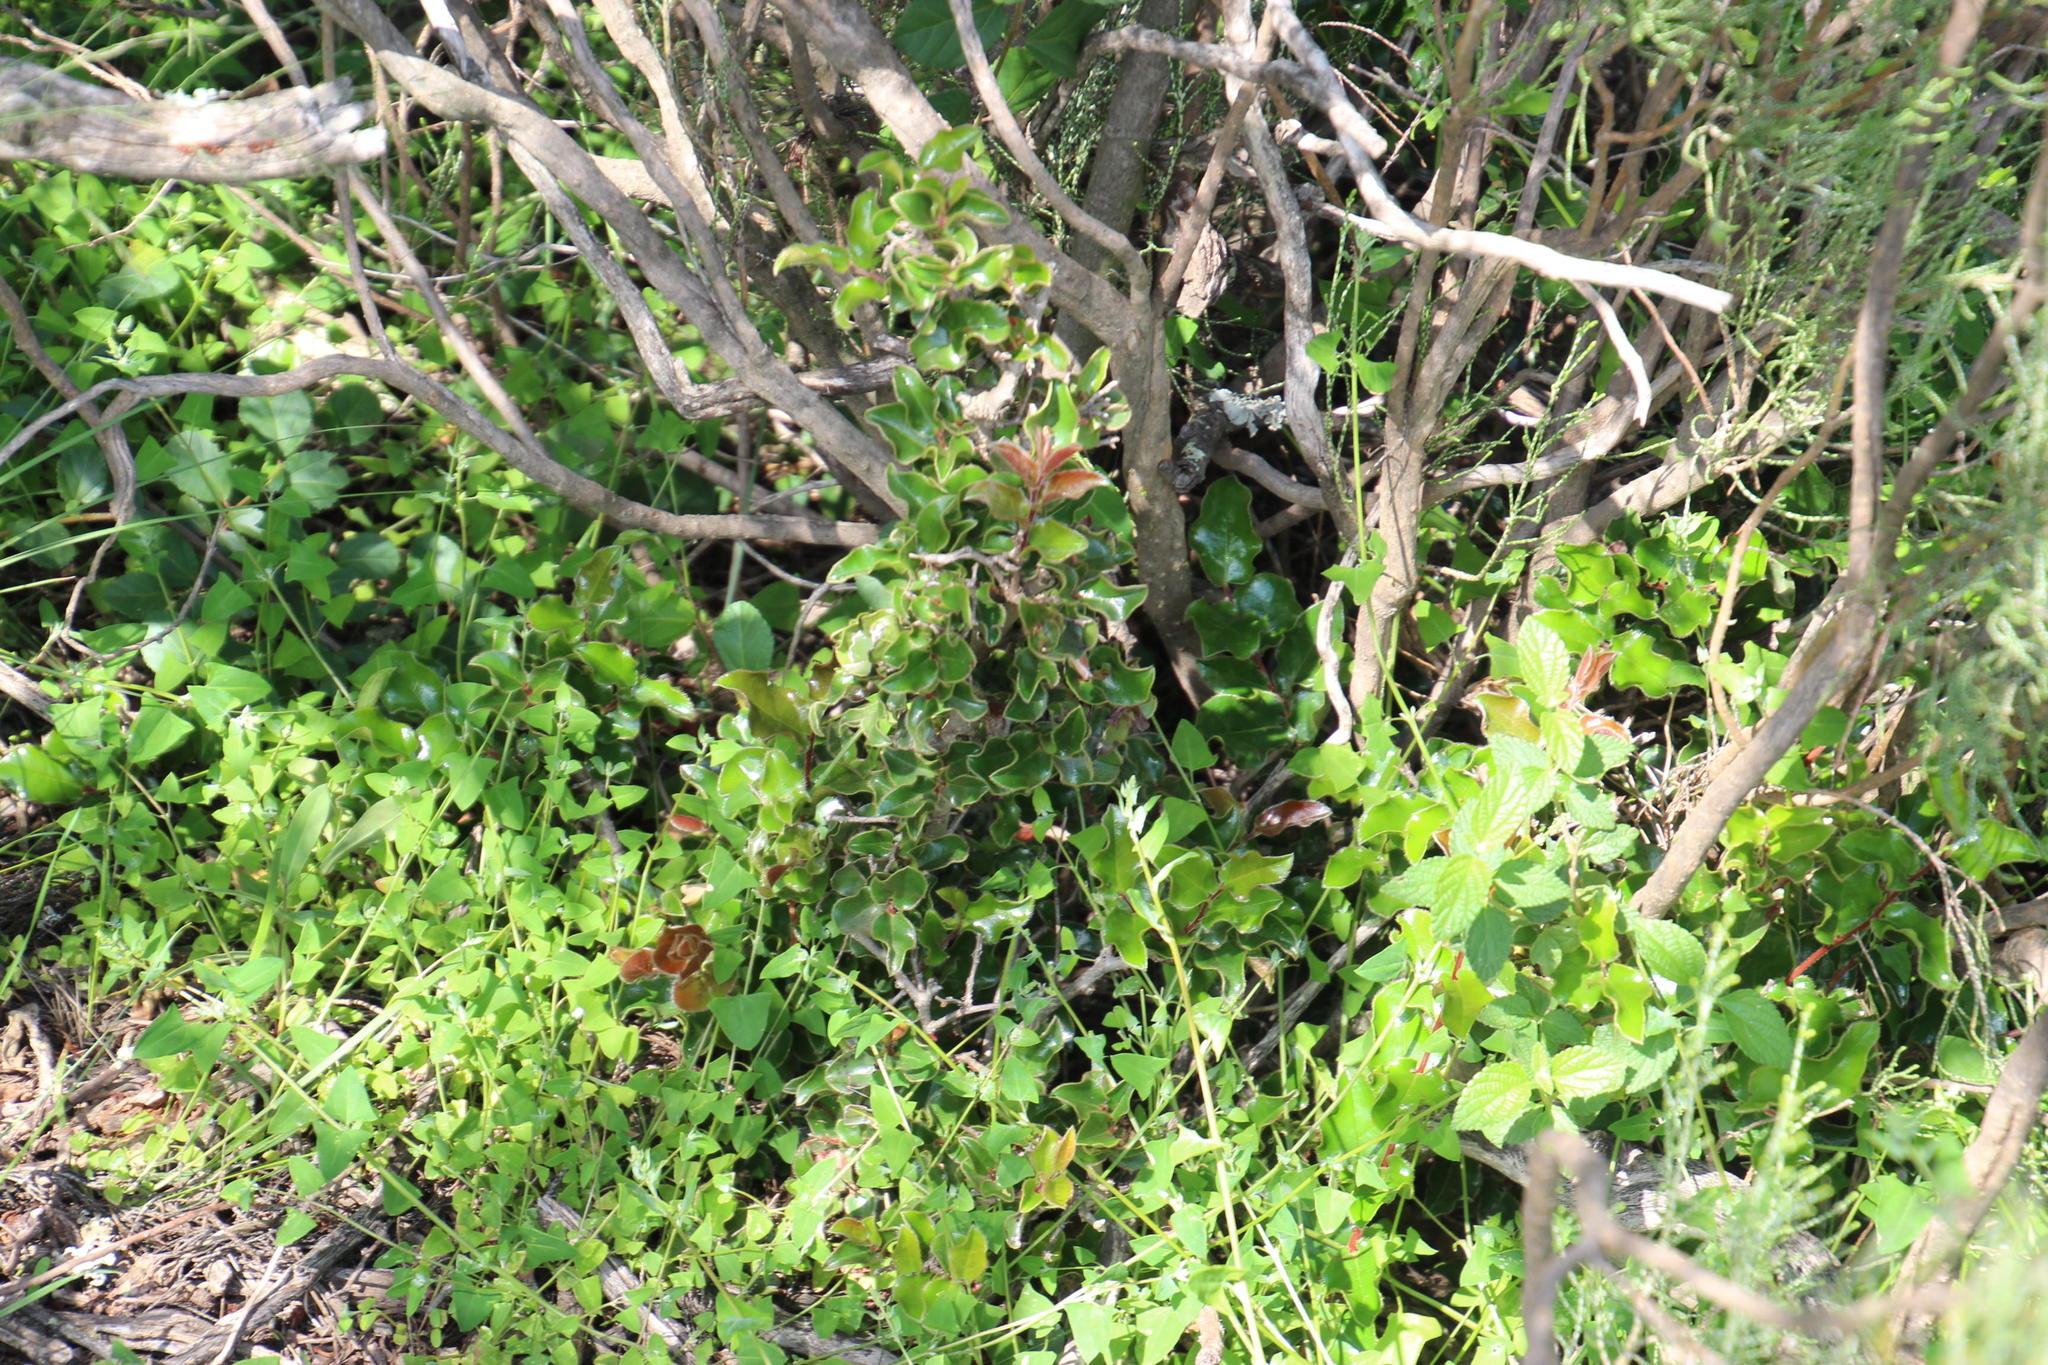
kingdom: Plantae
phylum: Tracheophyta
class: Magnoliopsida
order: Ericales
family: Ebenaceae
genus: Diospyros
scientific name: Diospyros scabrida
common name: Coastal bladder-nut
